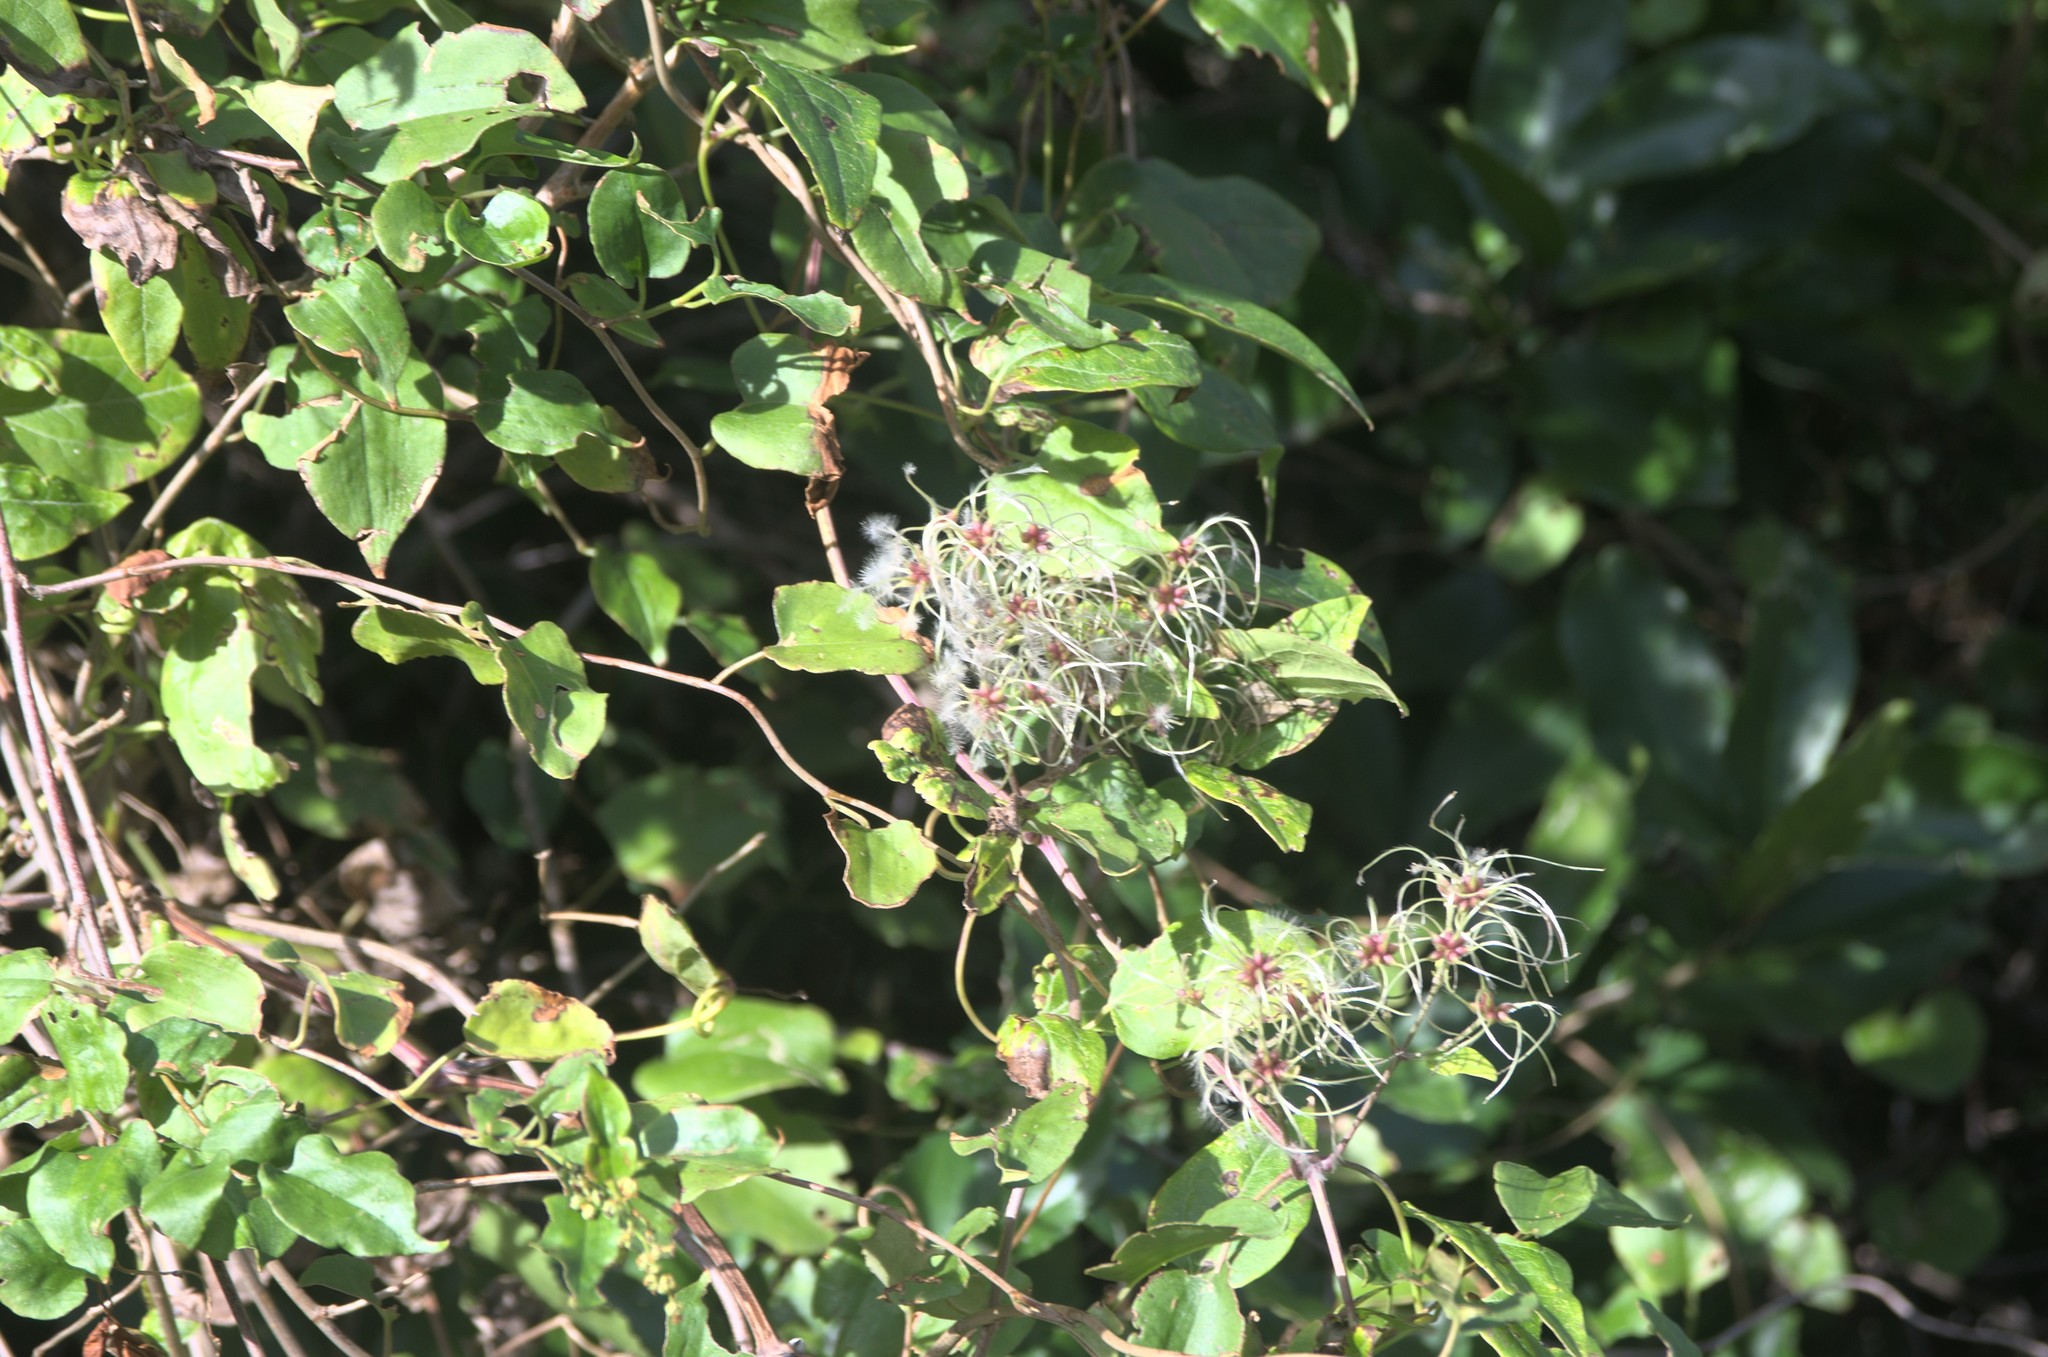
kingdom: Plantae
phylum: Tracheophyta
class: Magnoliopsida
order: Ranunculales
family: Ranunculaceae
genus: Clematis
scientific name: Clematis vitalba
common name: Evergreen clematis
